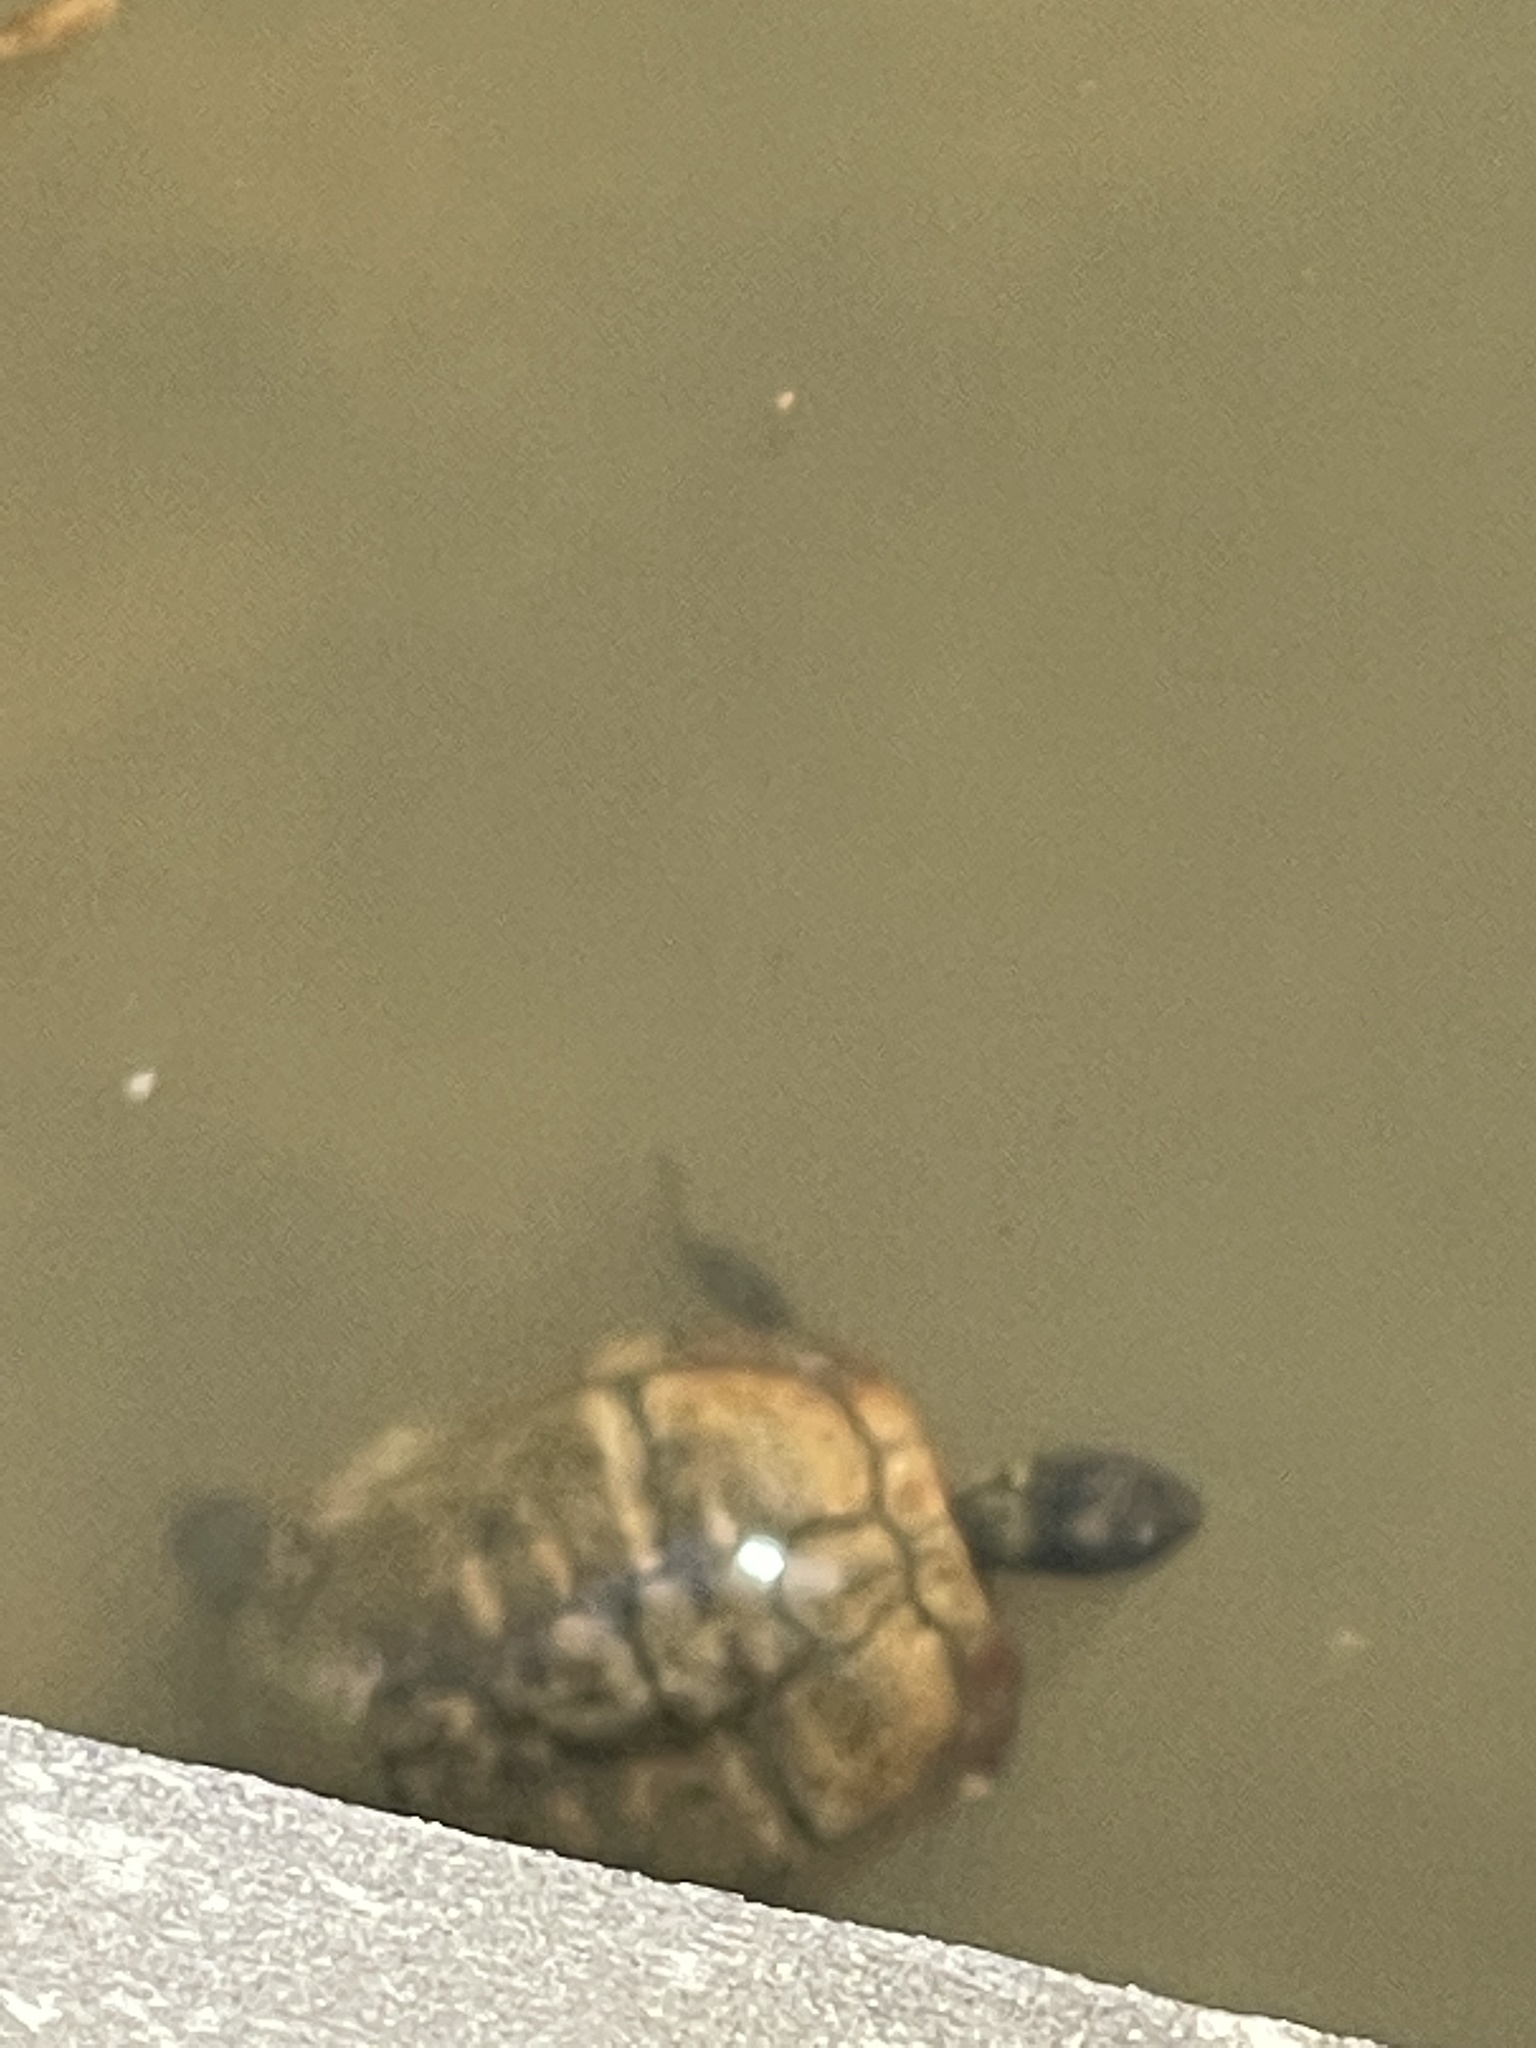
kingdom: Animalia
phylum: Chordata
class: Testudines
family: Emydidae
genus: Trachemys
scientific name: Trachemys scripta
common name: Slider
